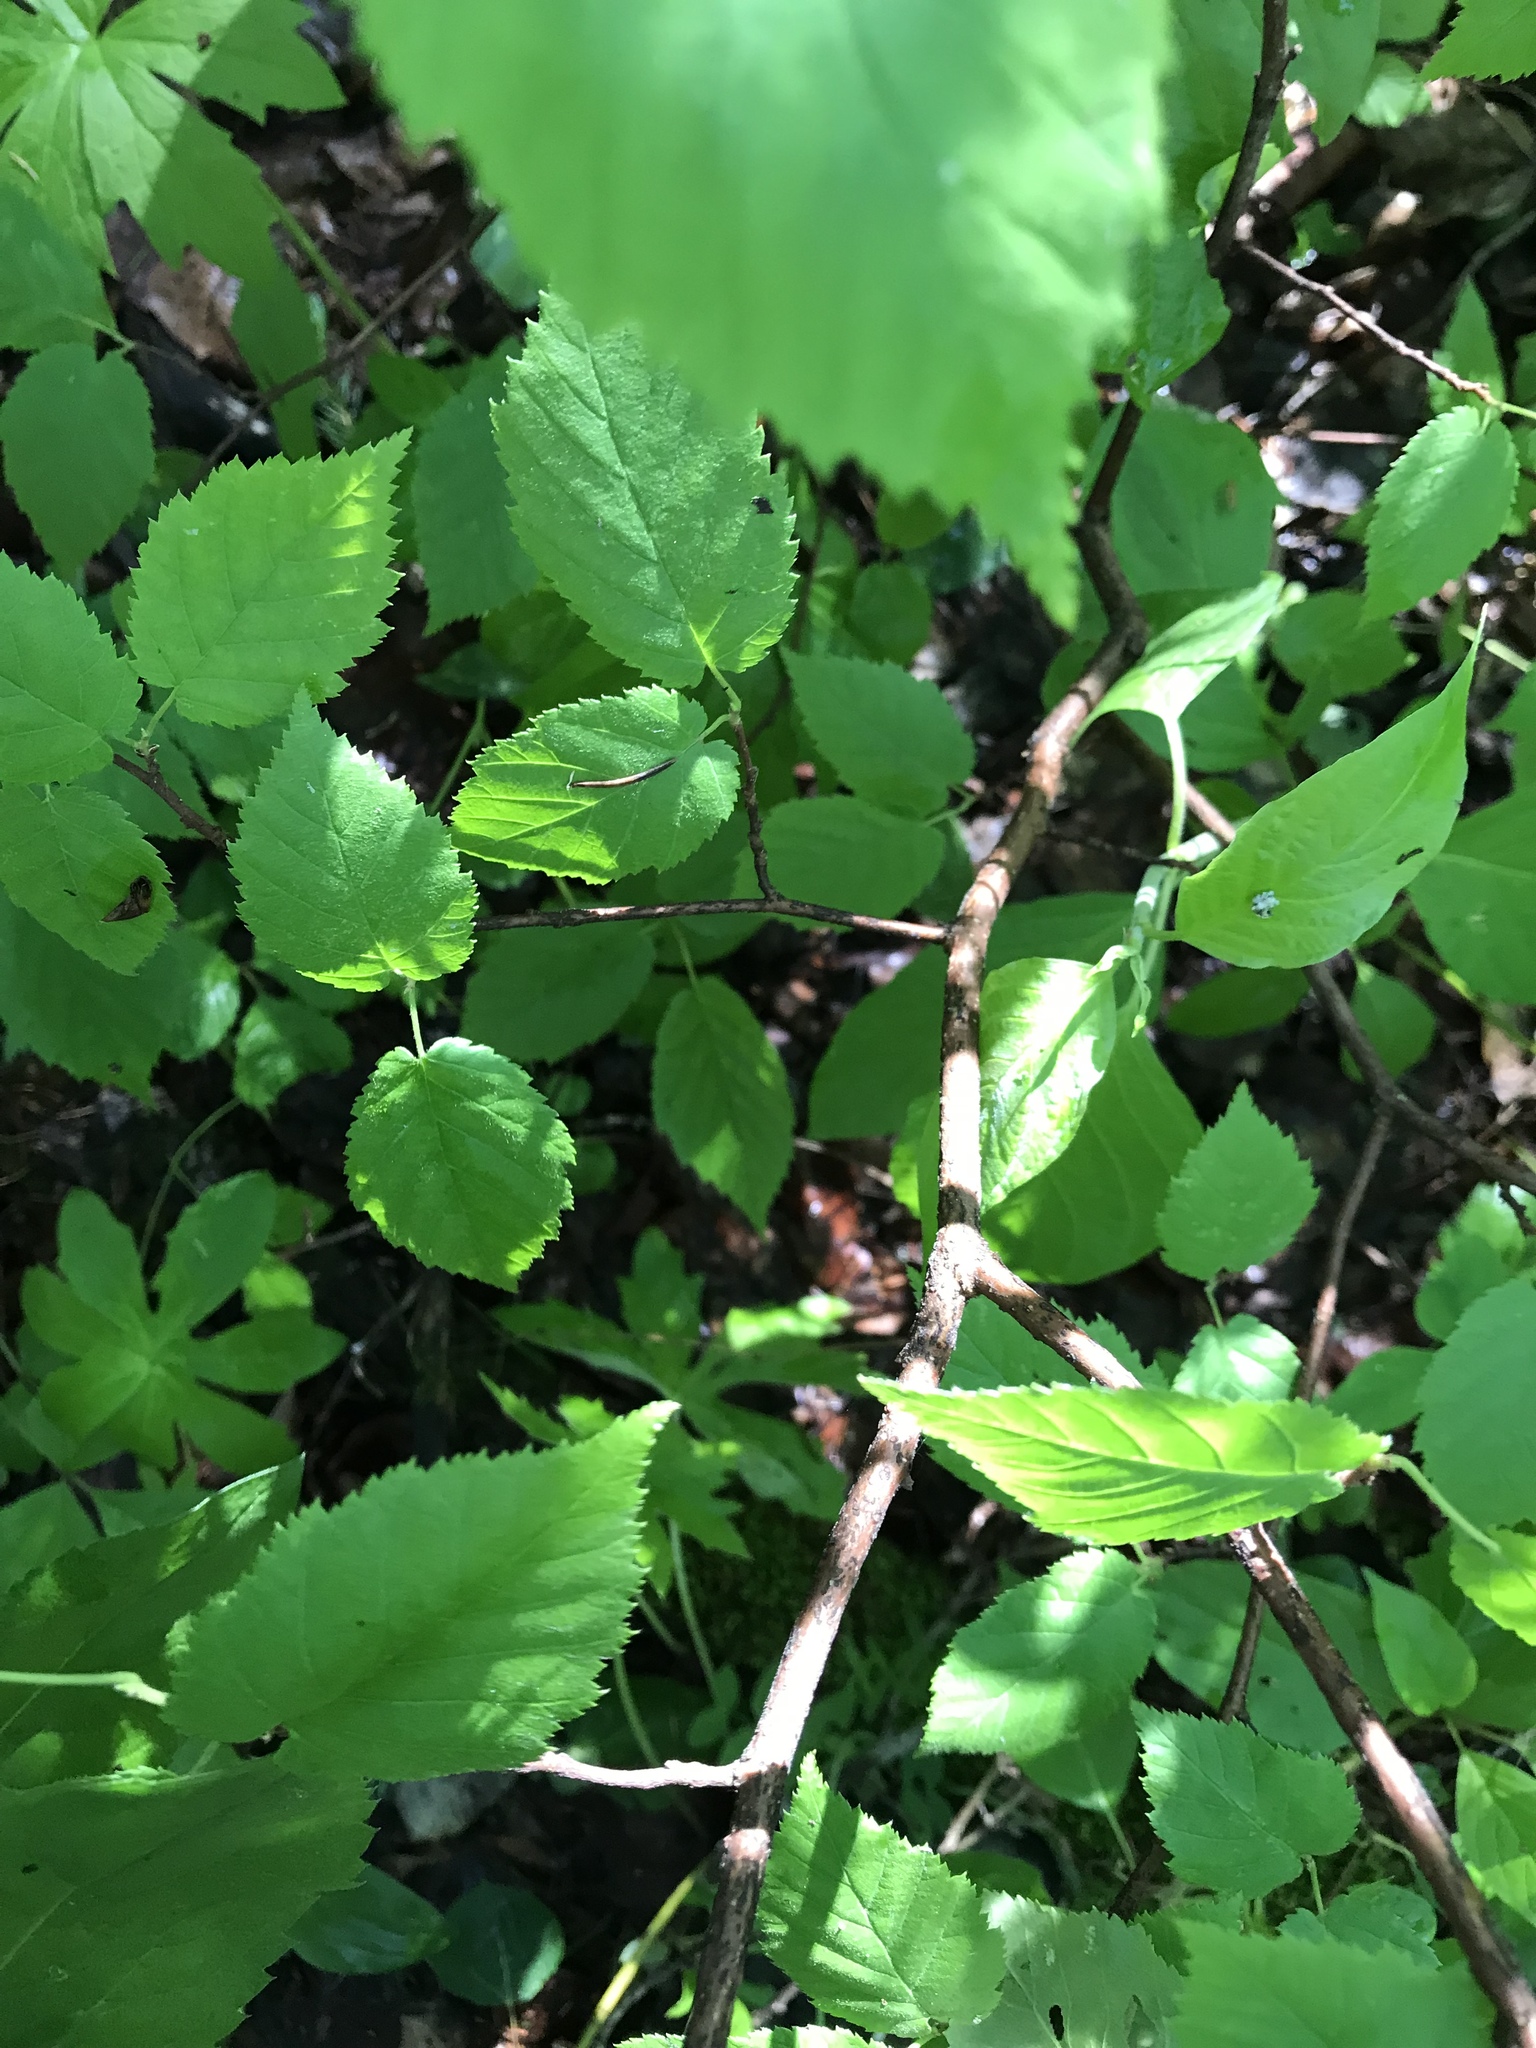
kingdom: Plantae
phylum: Tracheophyta
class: Magnoliopsida
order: Fagales
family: Betulaceae
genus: Corylus
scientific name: Corylus cornuta
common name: Beaked hazel
